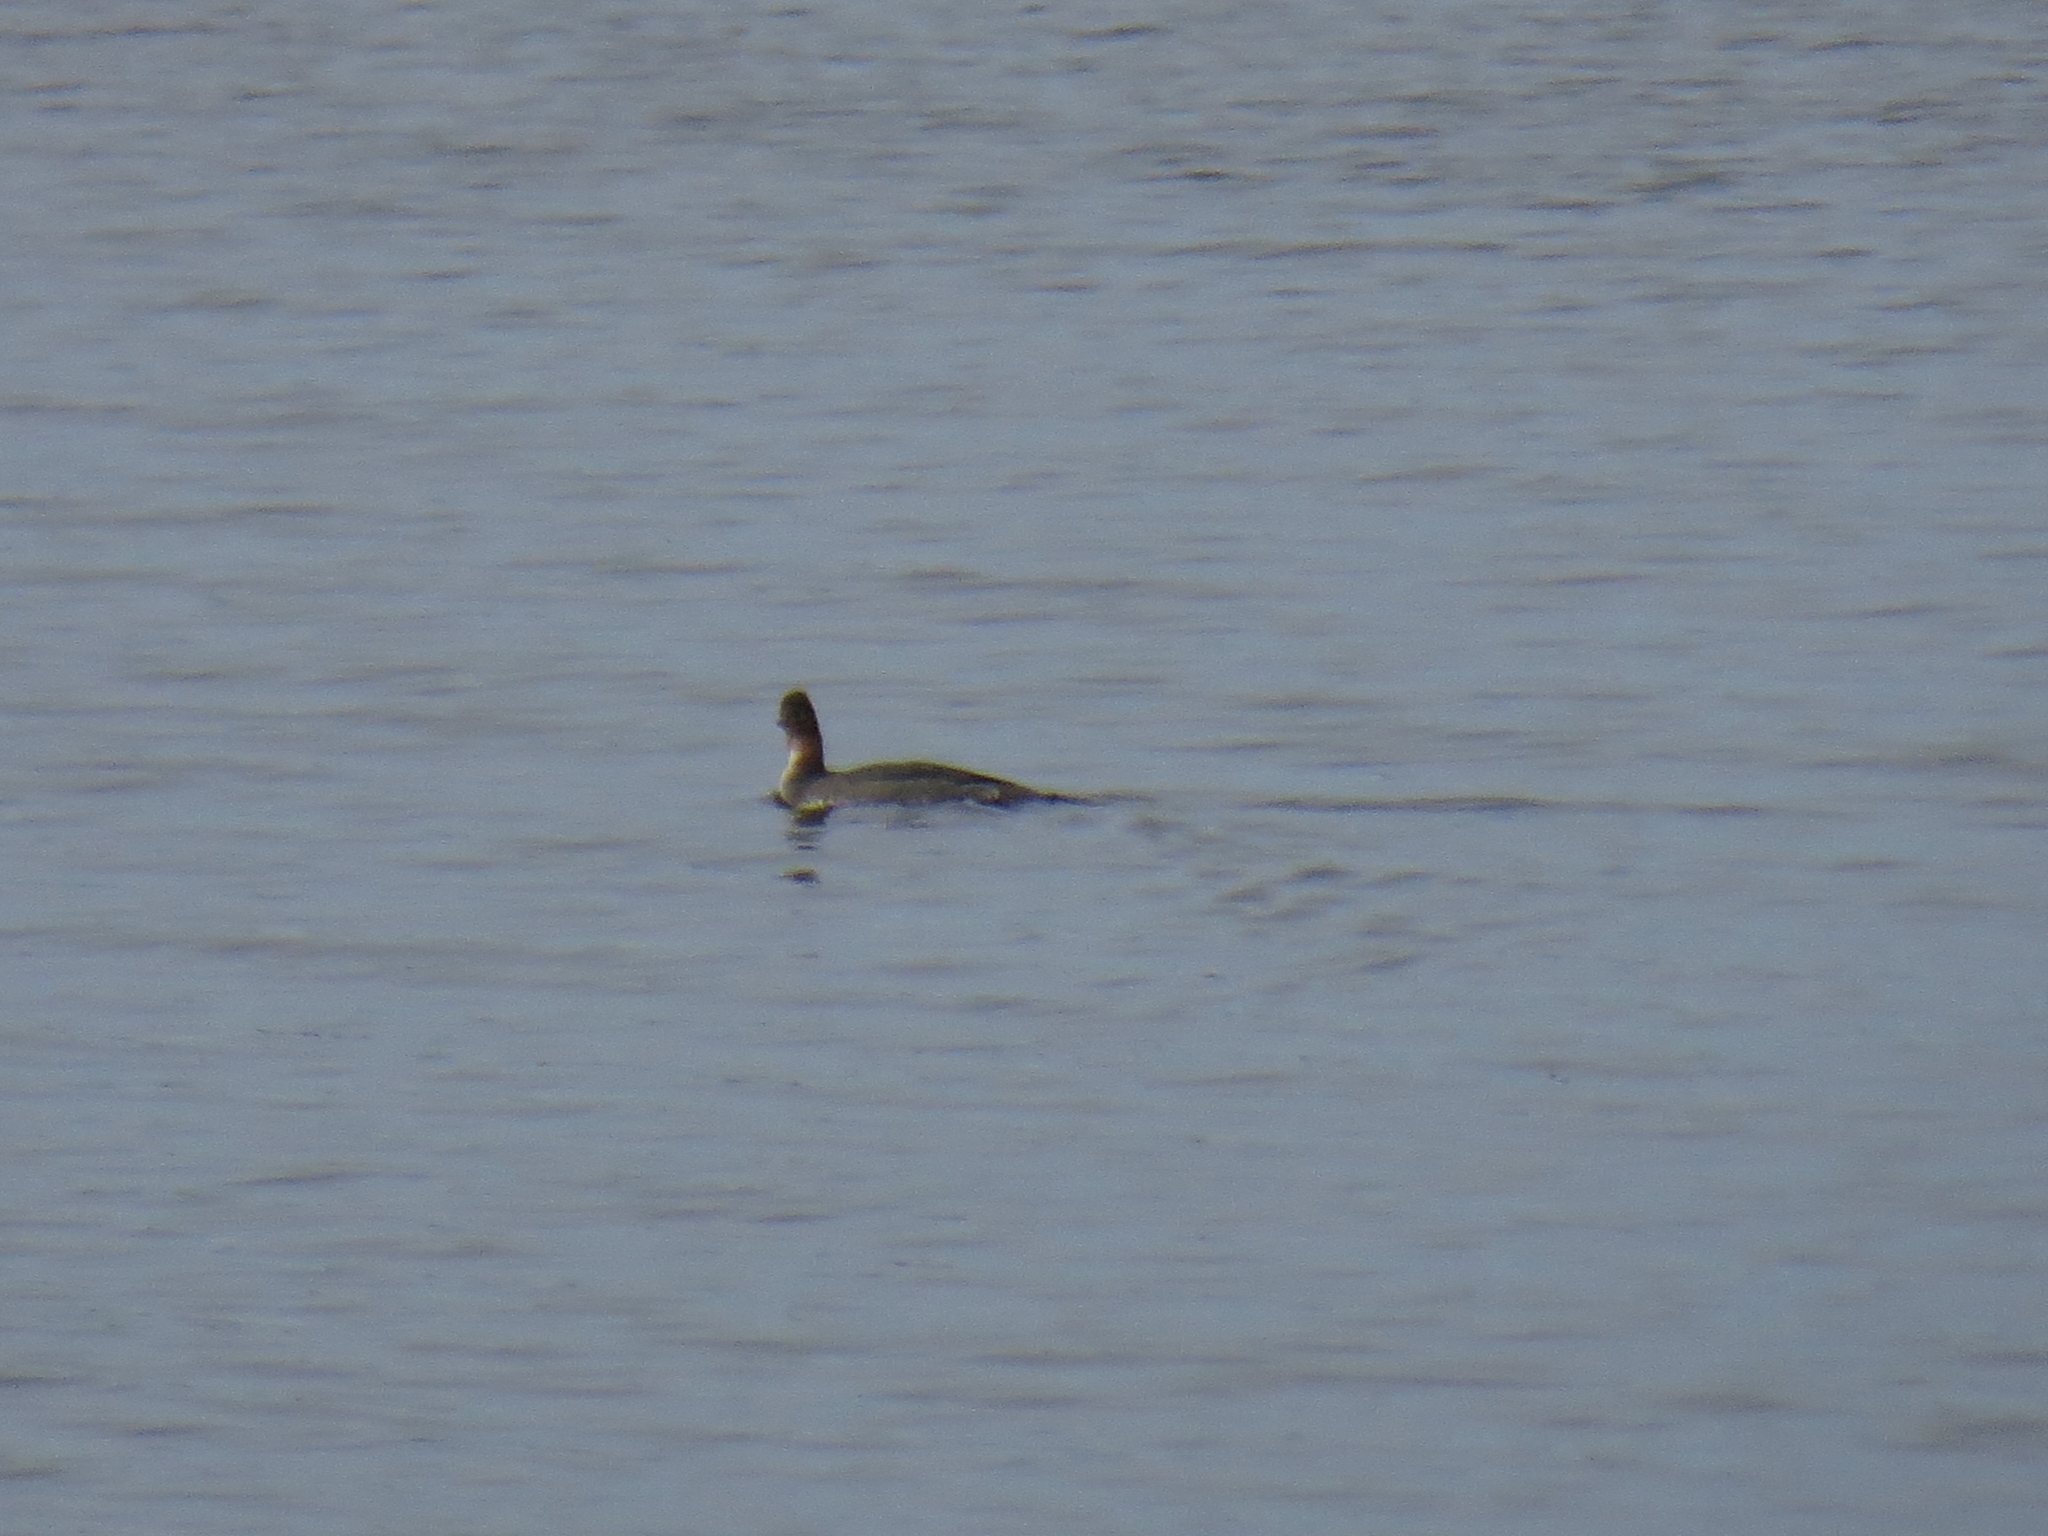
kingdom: Animalia
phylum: Chordata
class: Aves
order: Anseriformes
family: Anatidae
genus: Mergus
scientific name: Mergus serrator
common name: Red-breasted merganser
